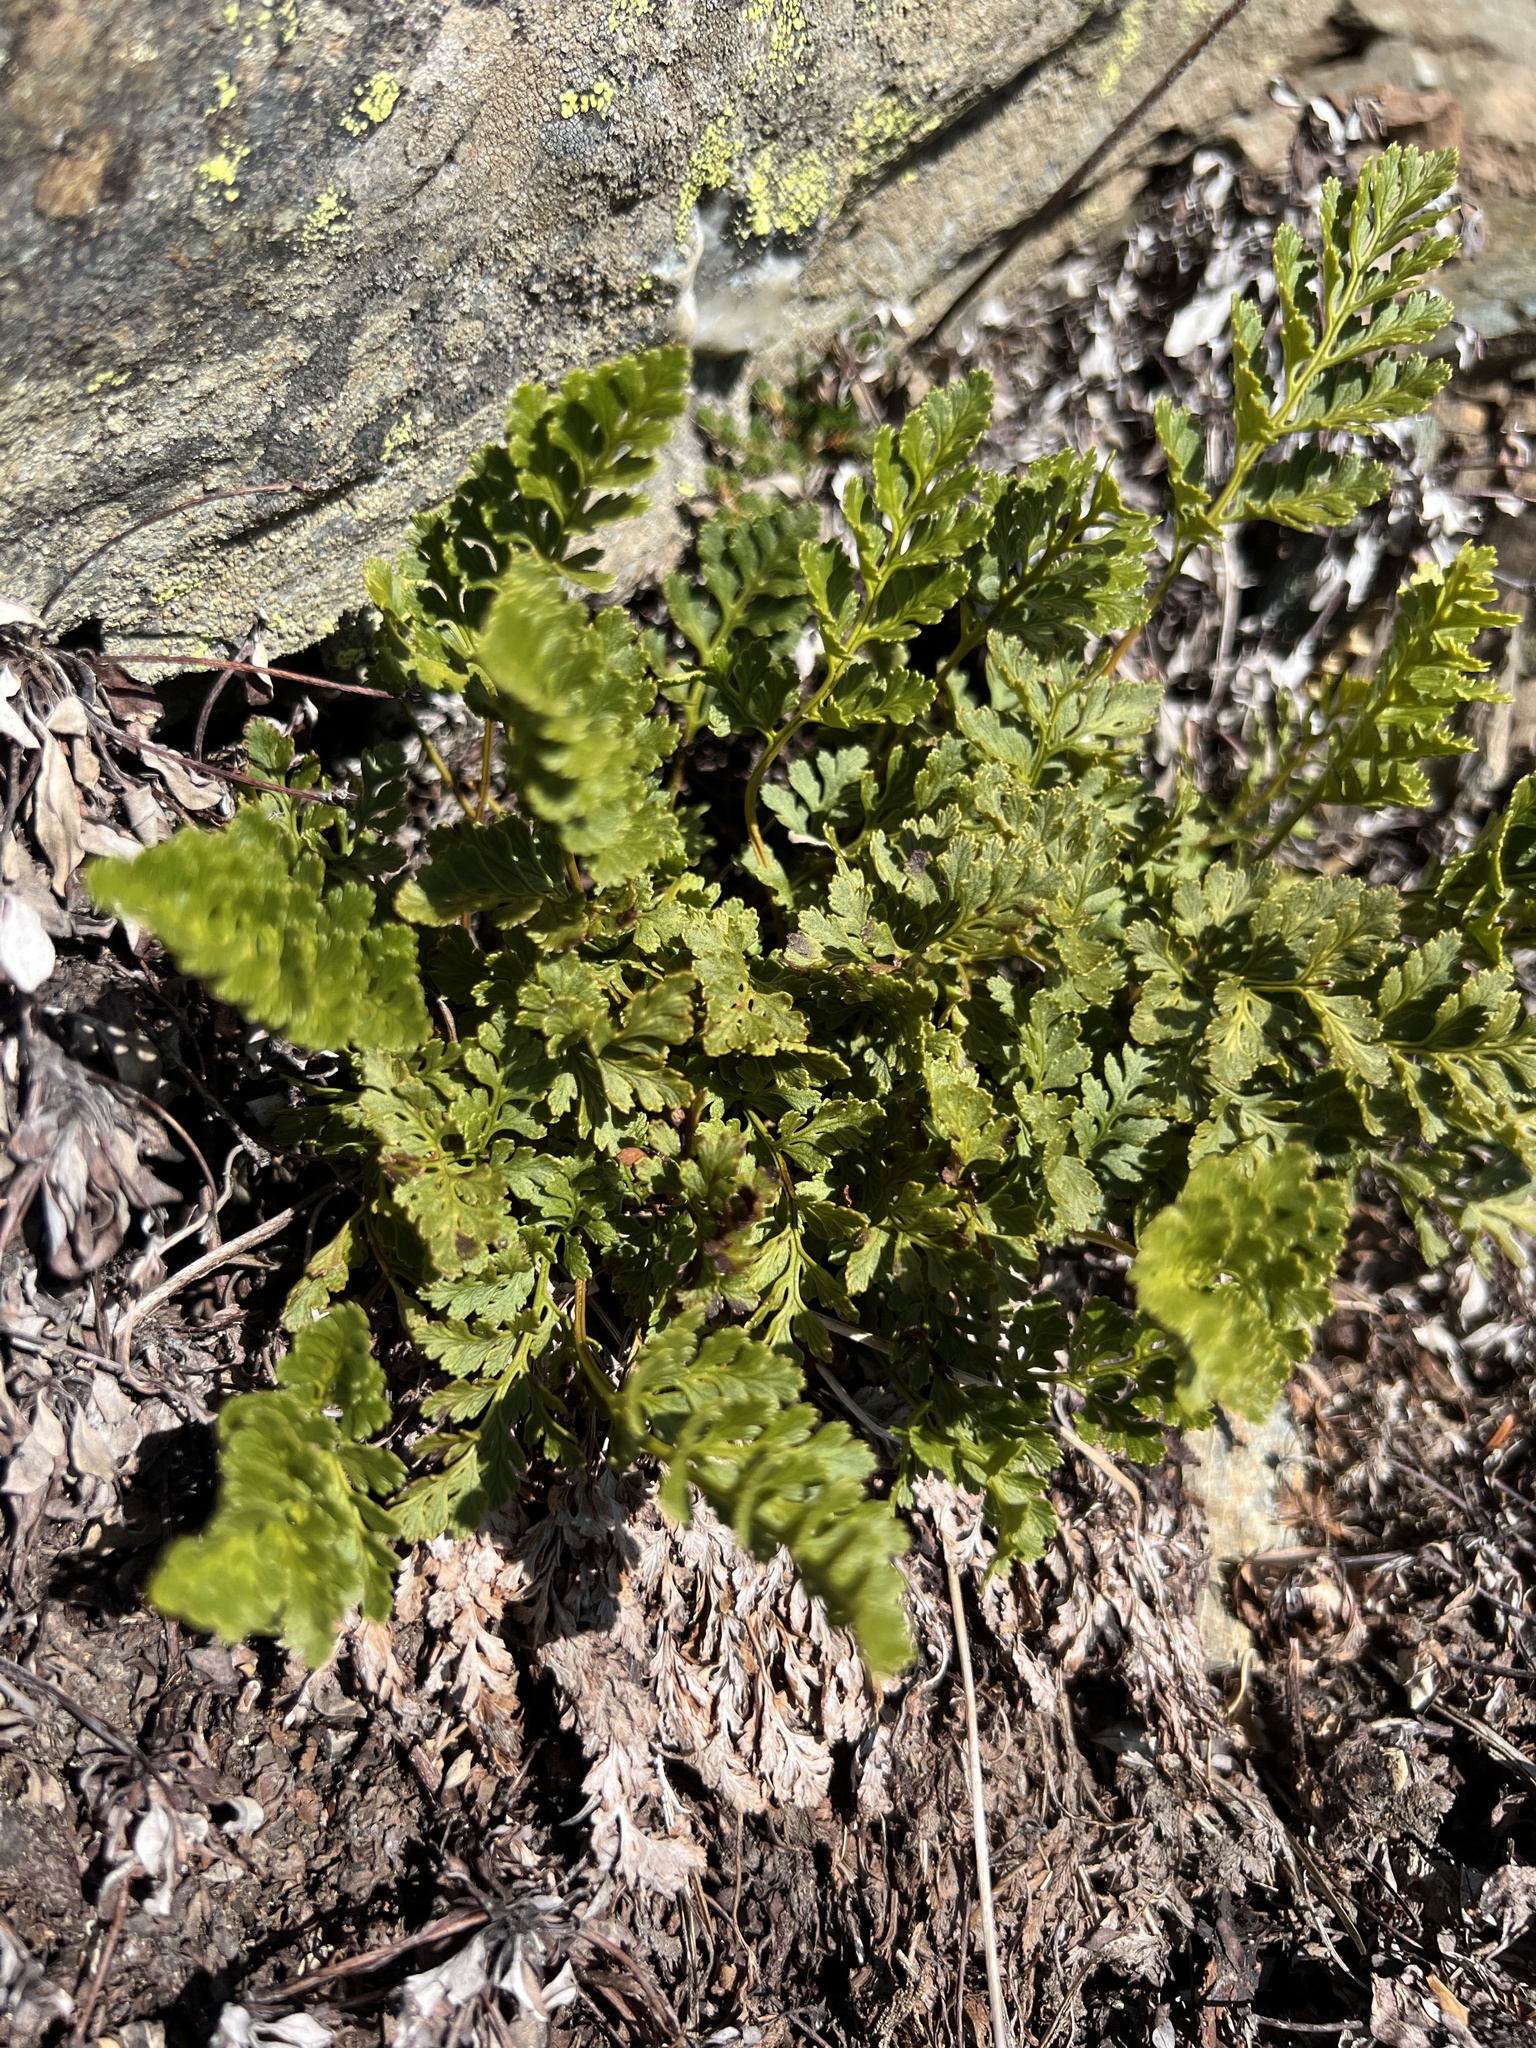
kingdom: Plantae
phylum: Tracheophyta
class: Polypodiopsida
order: Polypodiales
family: Pteridaceae
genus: Cryptogramma
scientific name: Cryptogramma acrostichoides
